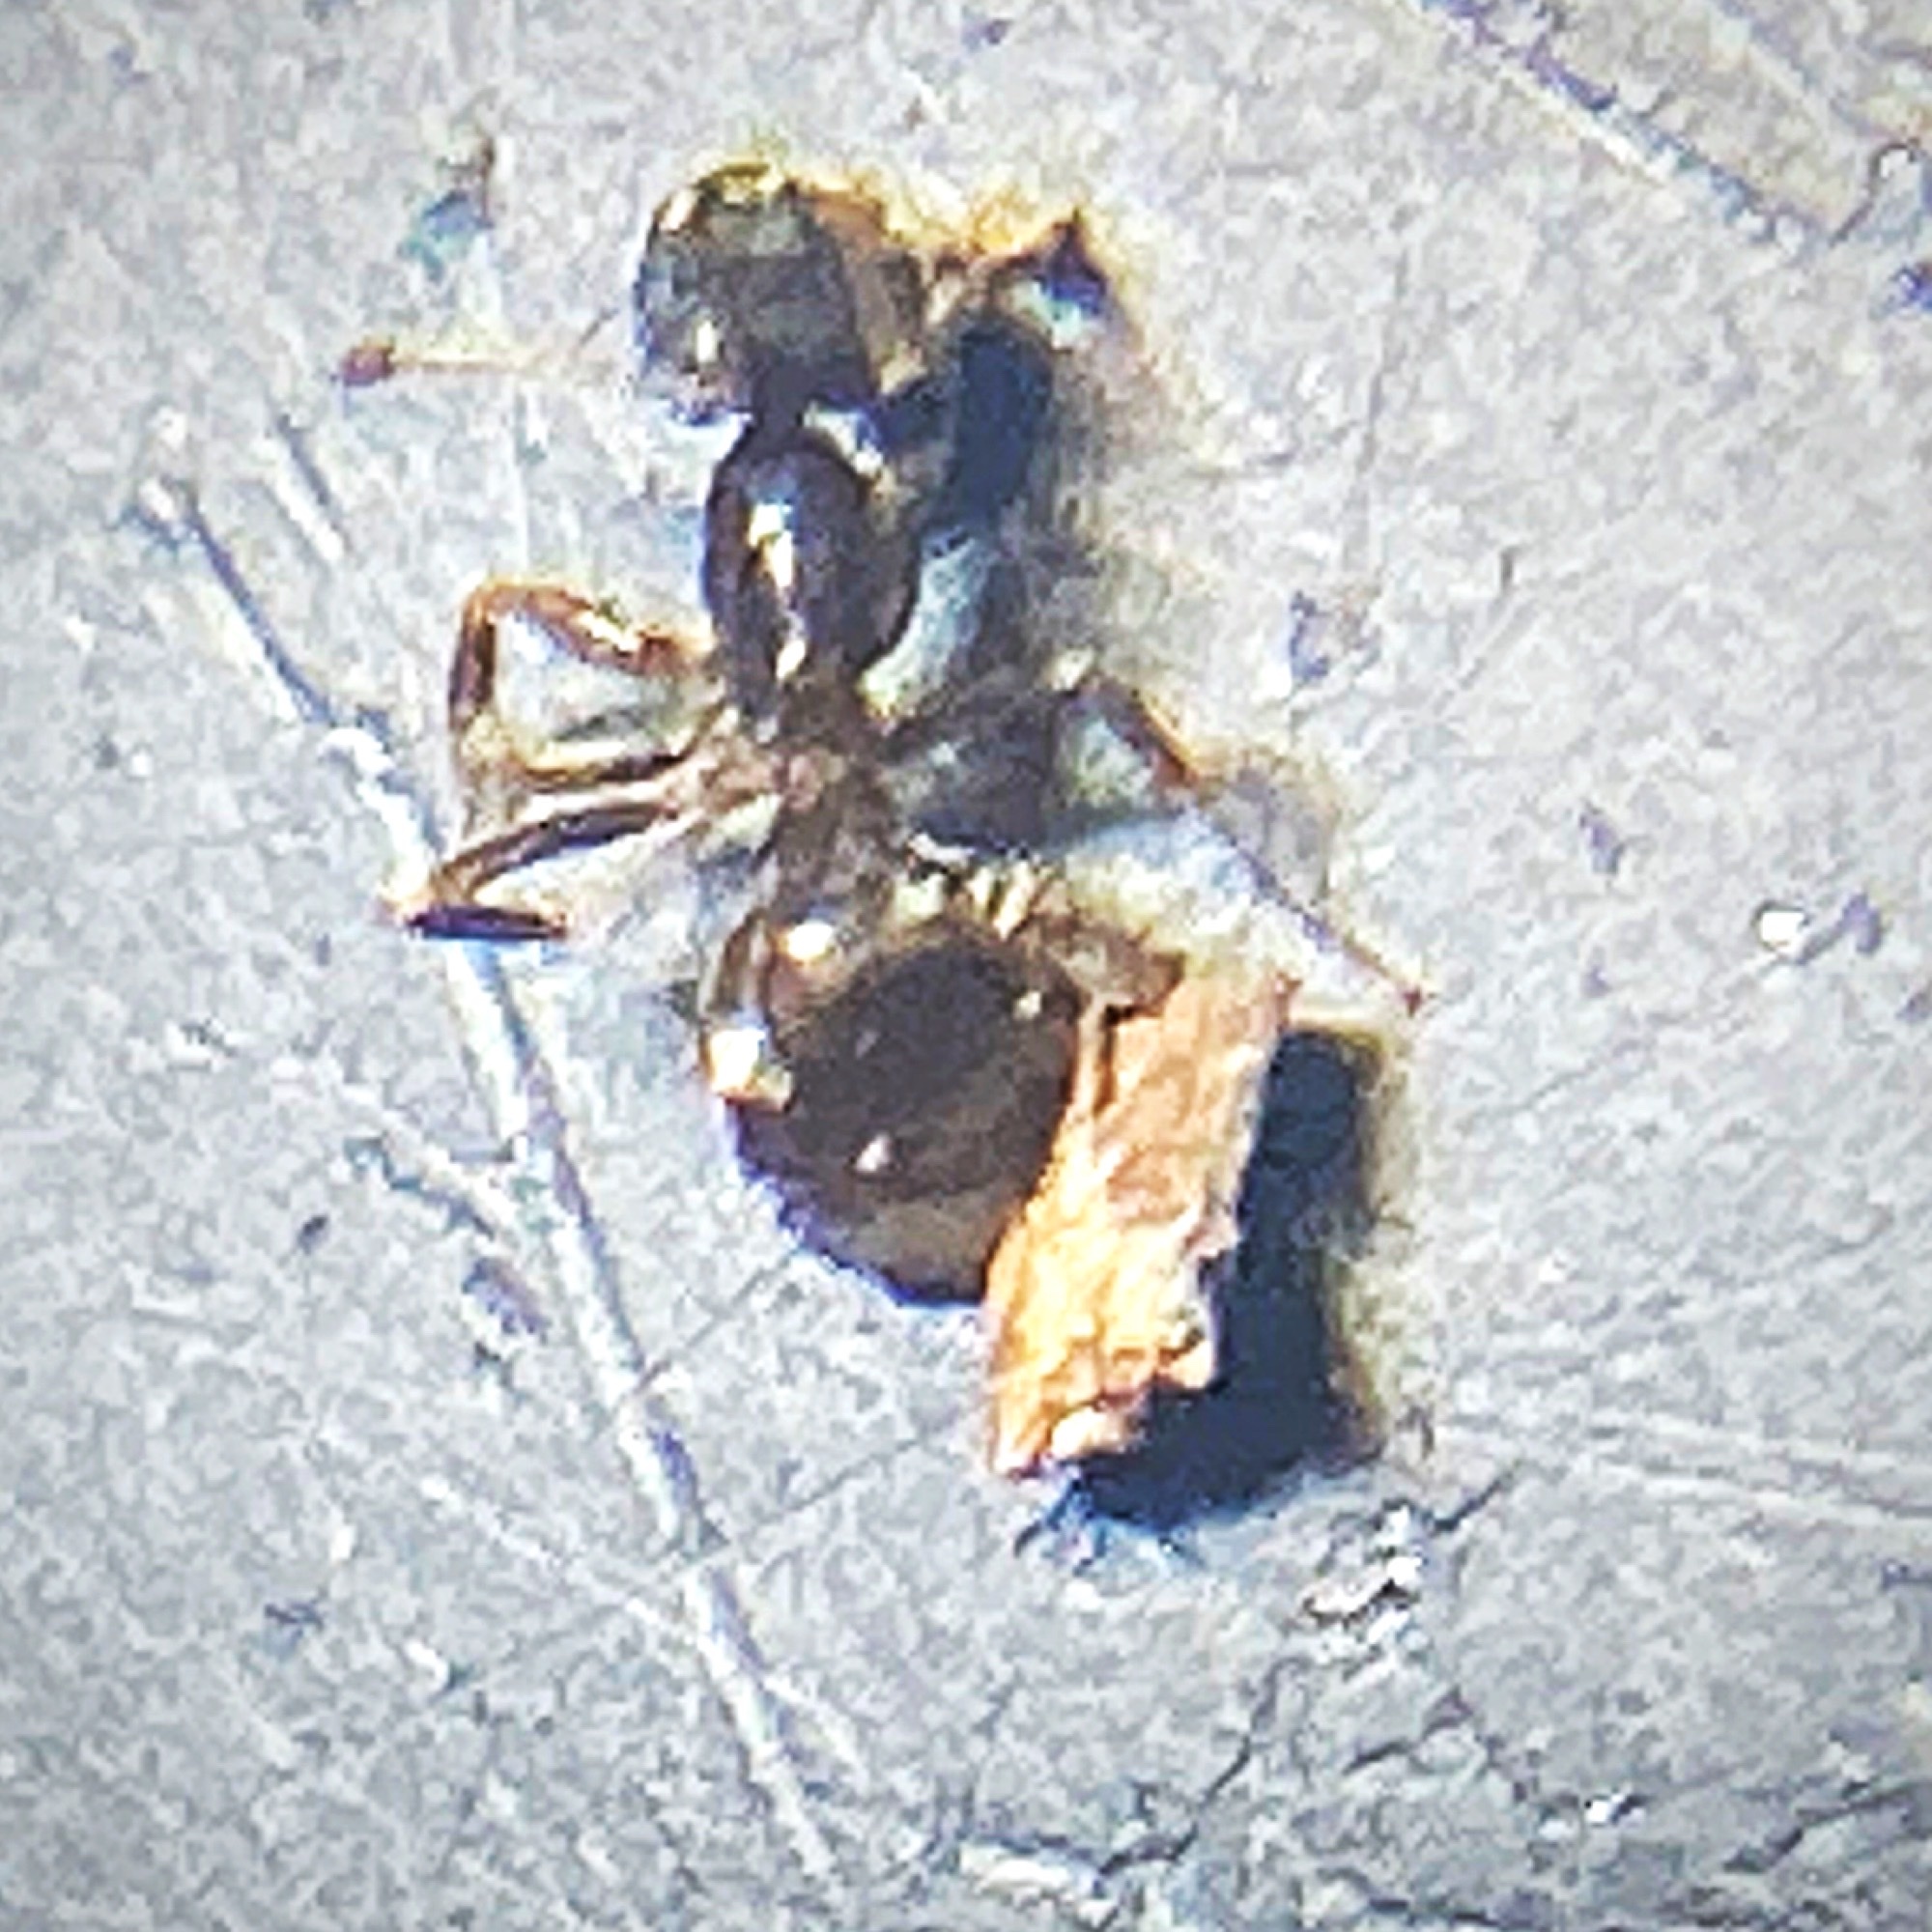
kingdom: Animalia
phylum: Arthropoda
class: Insecta
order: Hymenoptera
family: Formicidae
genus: Tapinoma
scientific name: Tapinoma sessile
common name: Odorous house ant
